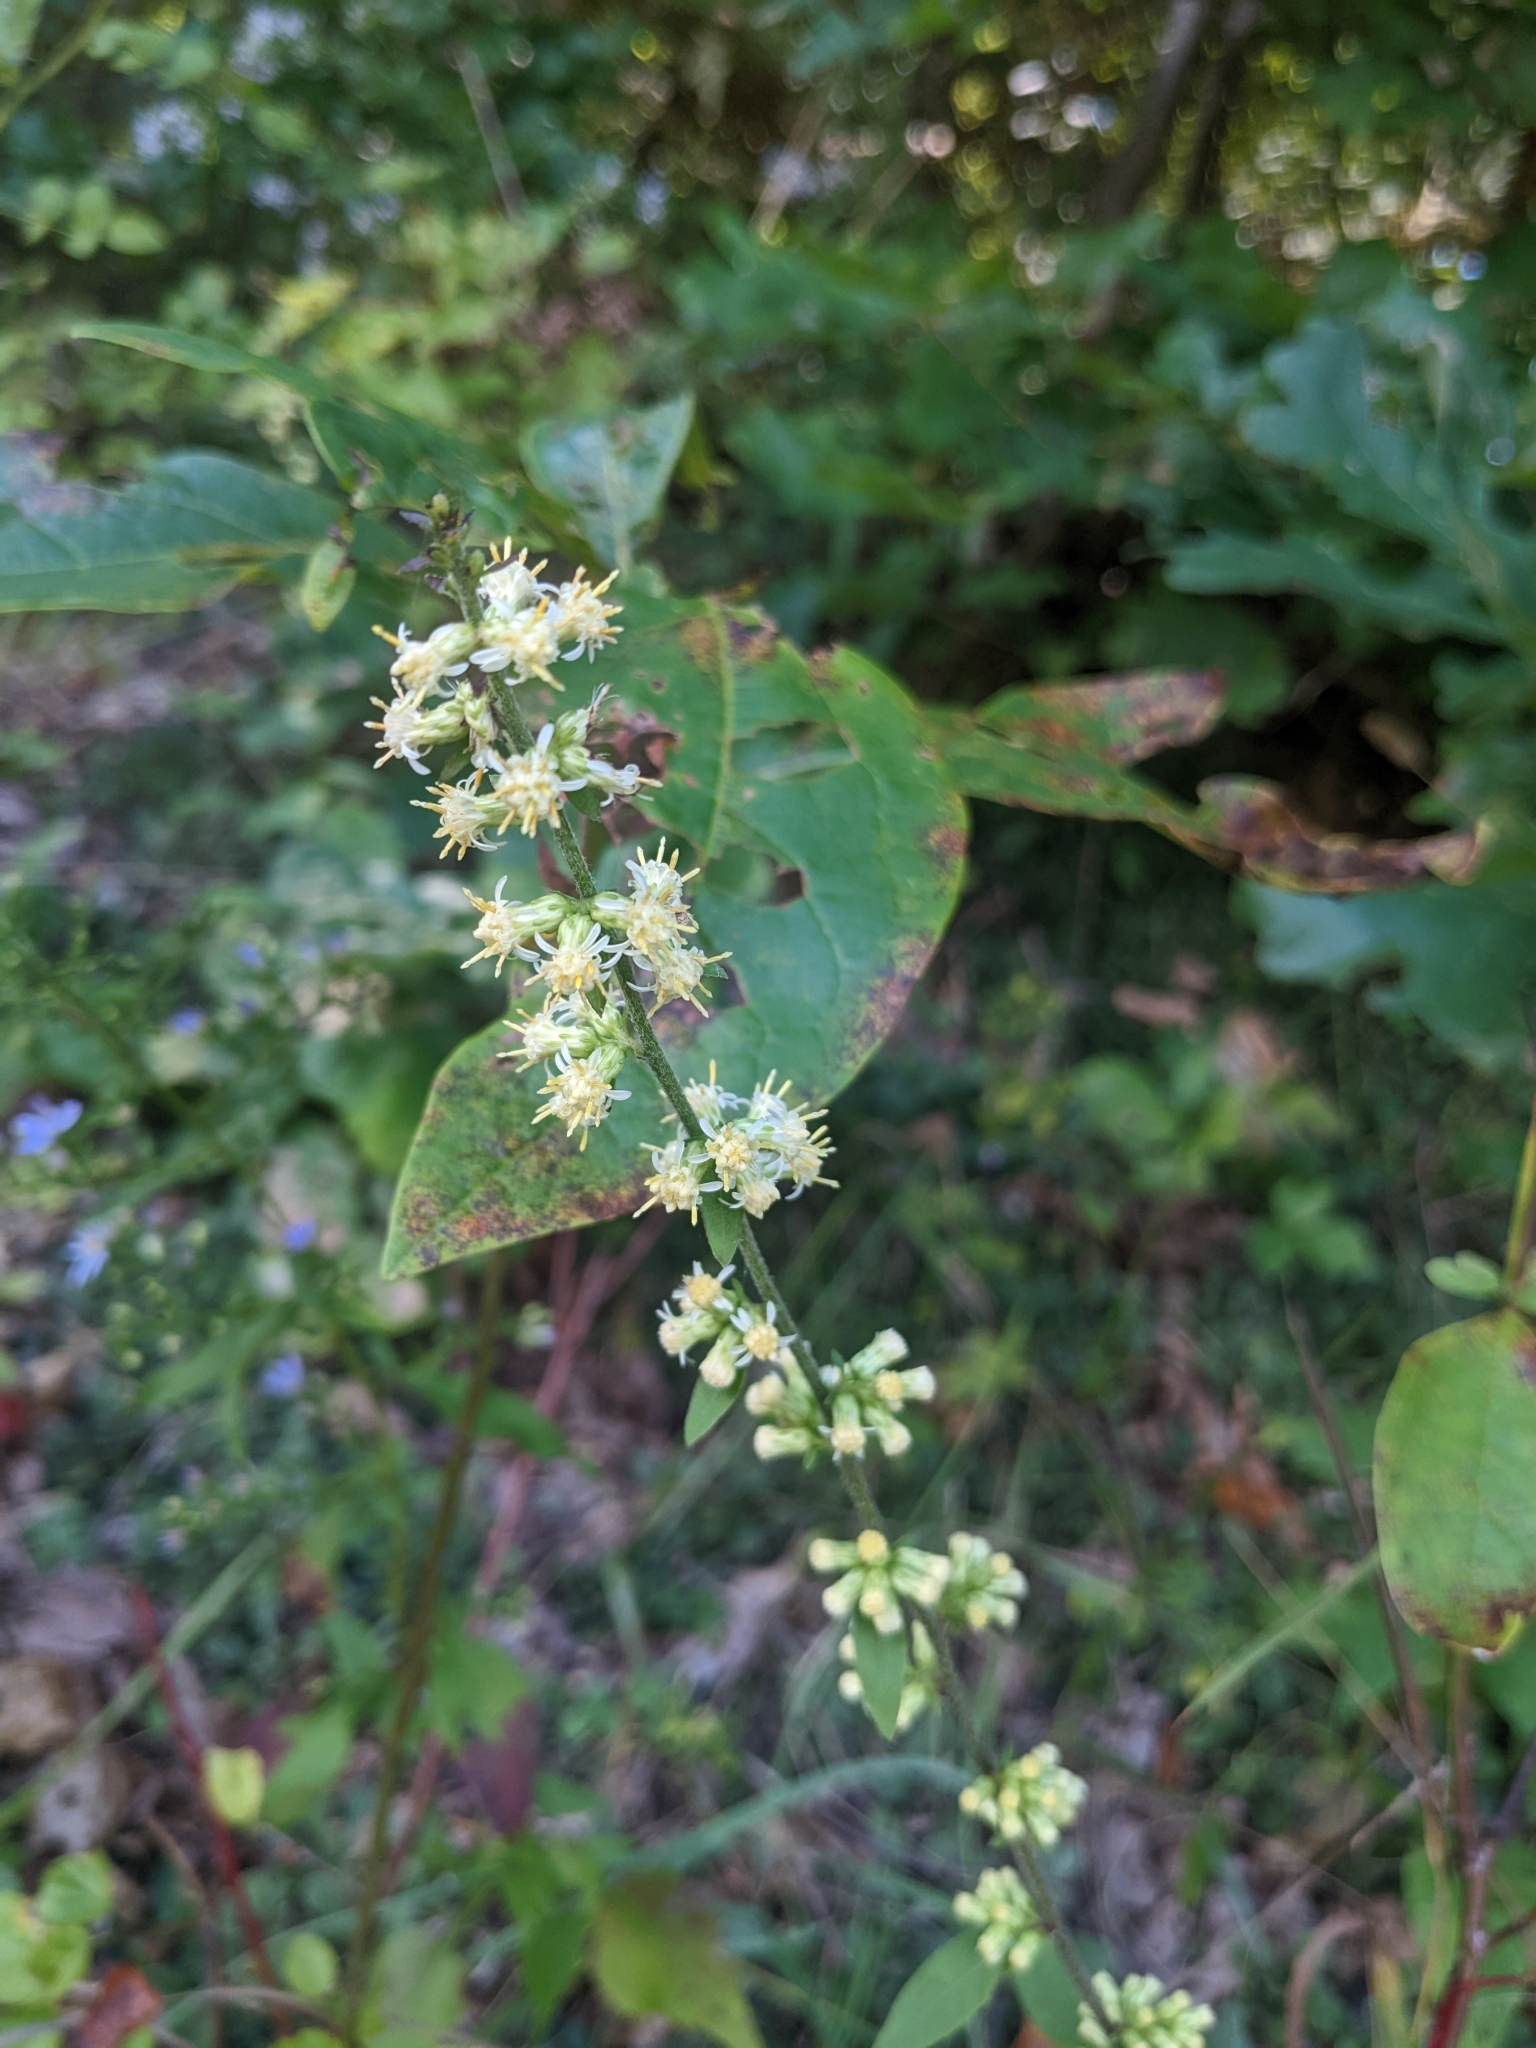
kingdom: Plantae
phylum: Tracheophyta
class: Magnoliopsida
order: Asterales
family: Asteraceae
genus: Solidago
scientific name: Solidago bicolor
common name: Silverrod
